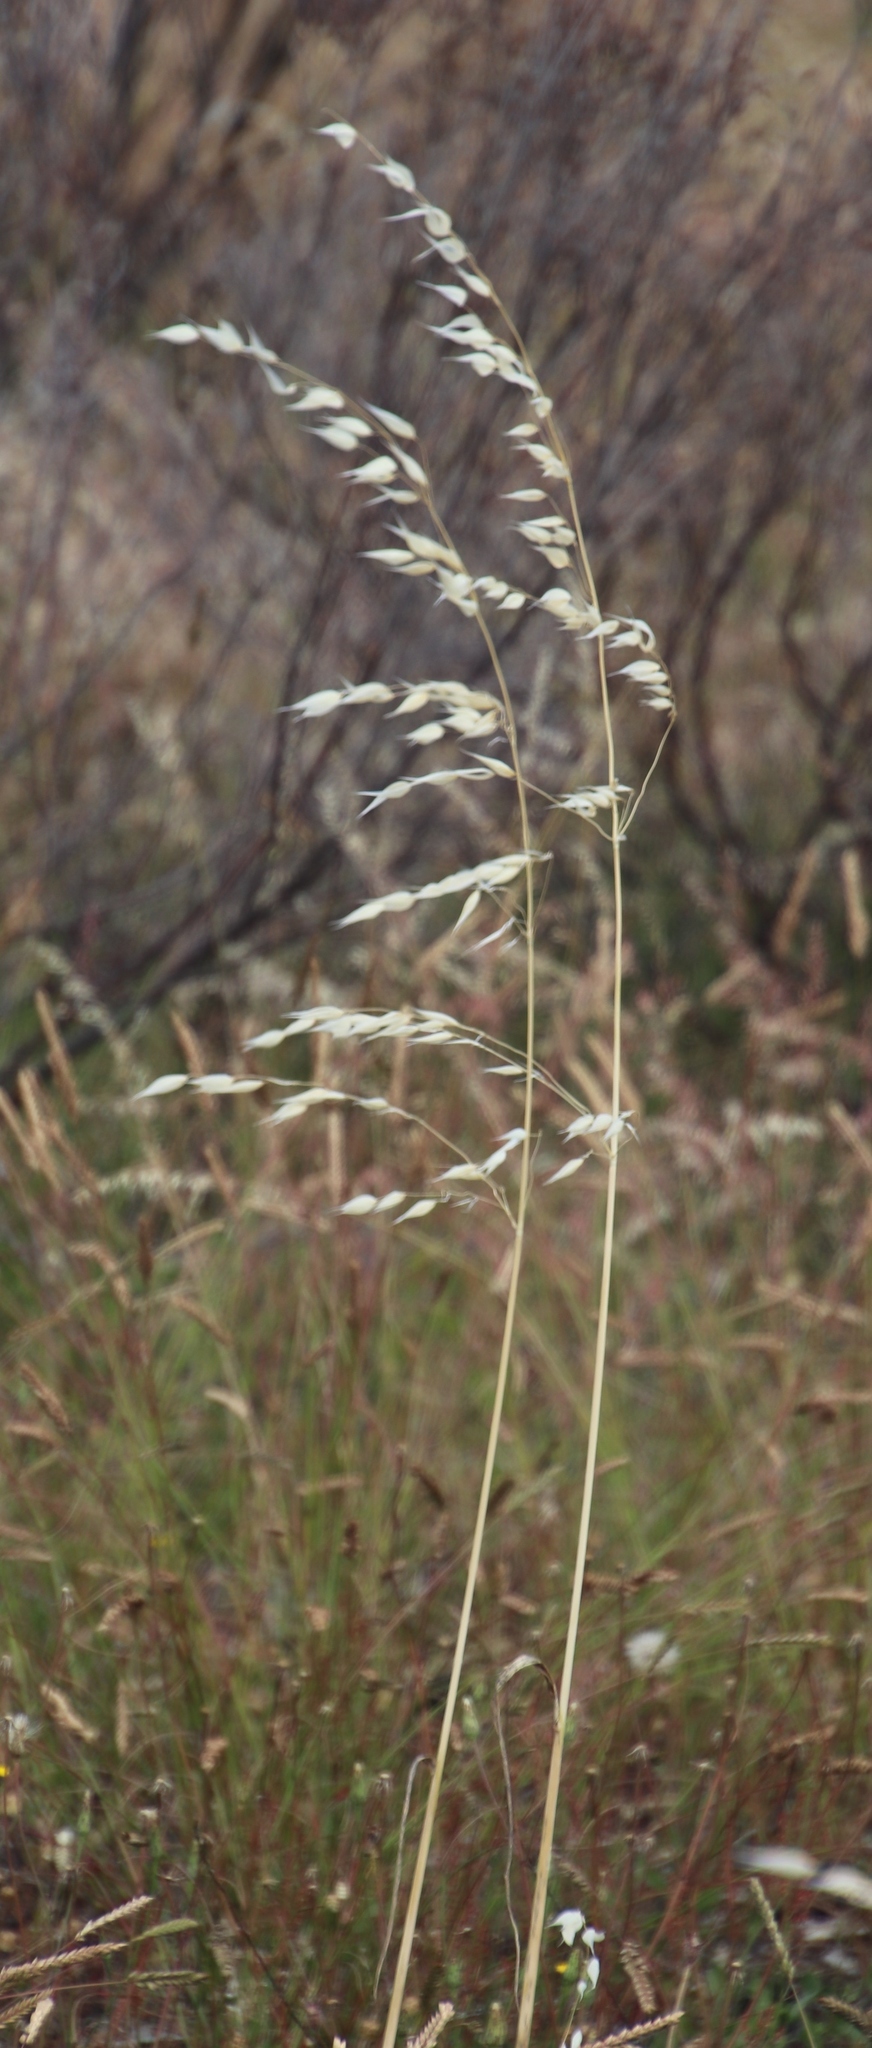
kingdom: Plantae
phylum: Tracheophyta
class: Liliopsida
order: Poales
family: Poaceae
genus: Avena
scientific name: Avena fatua
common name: Wild oat
